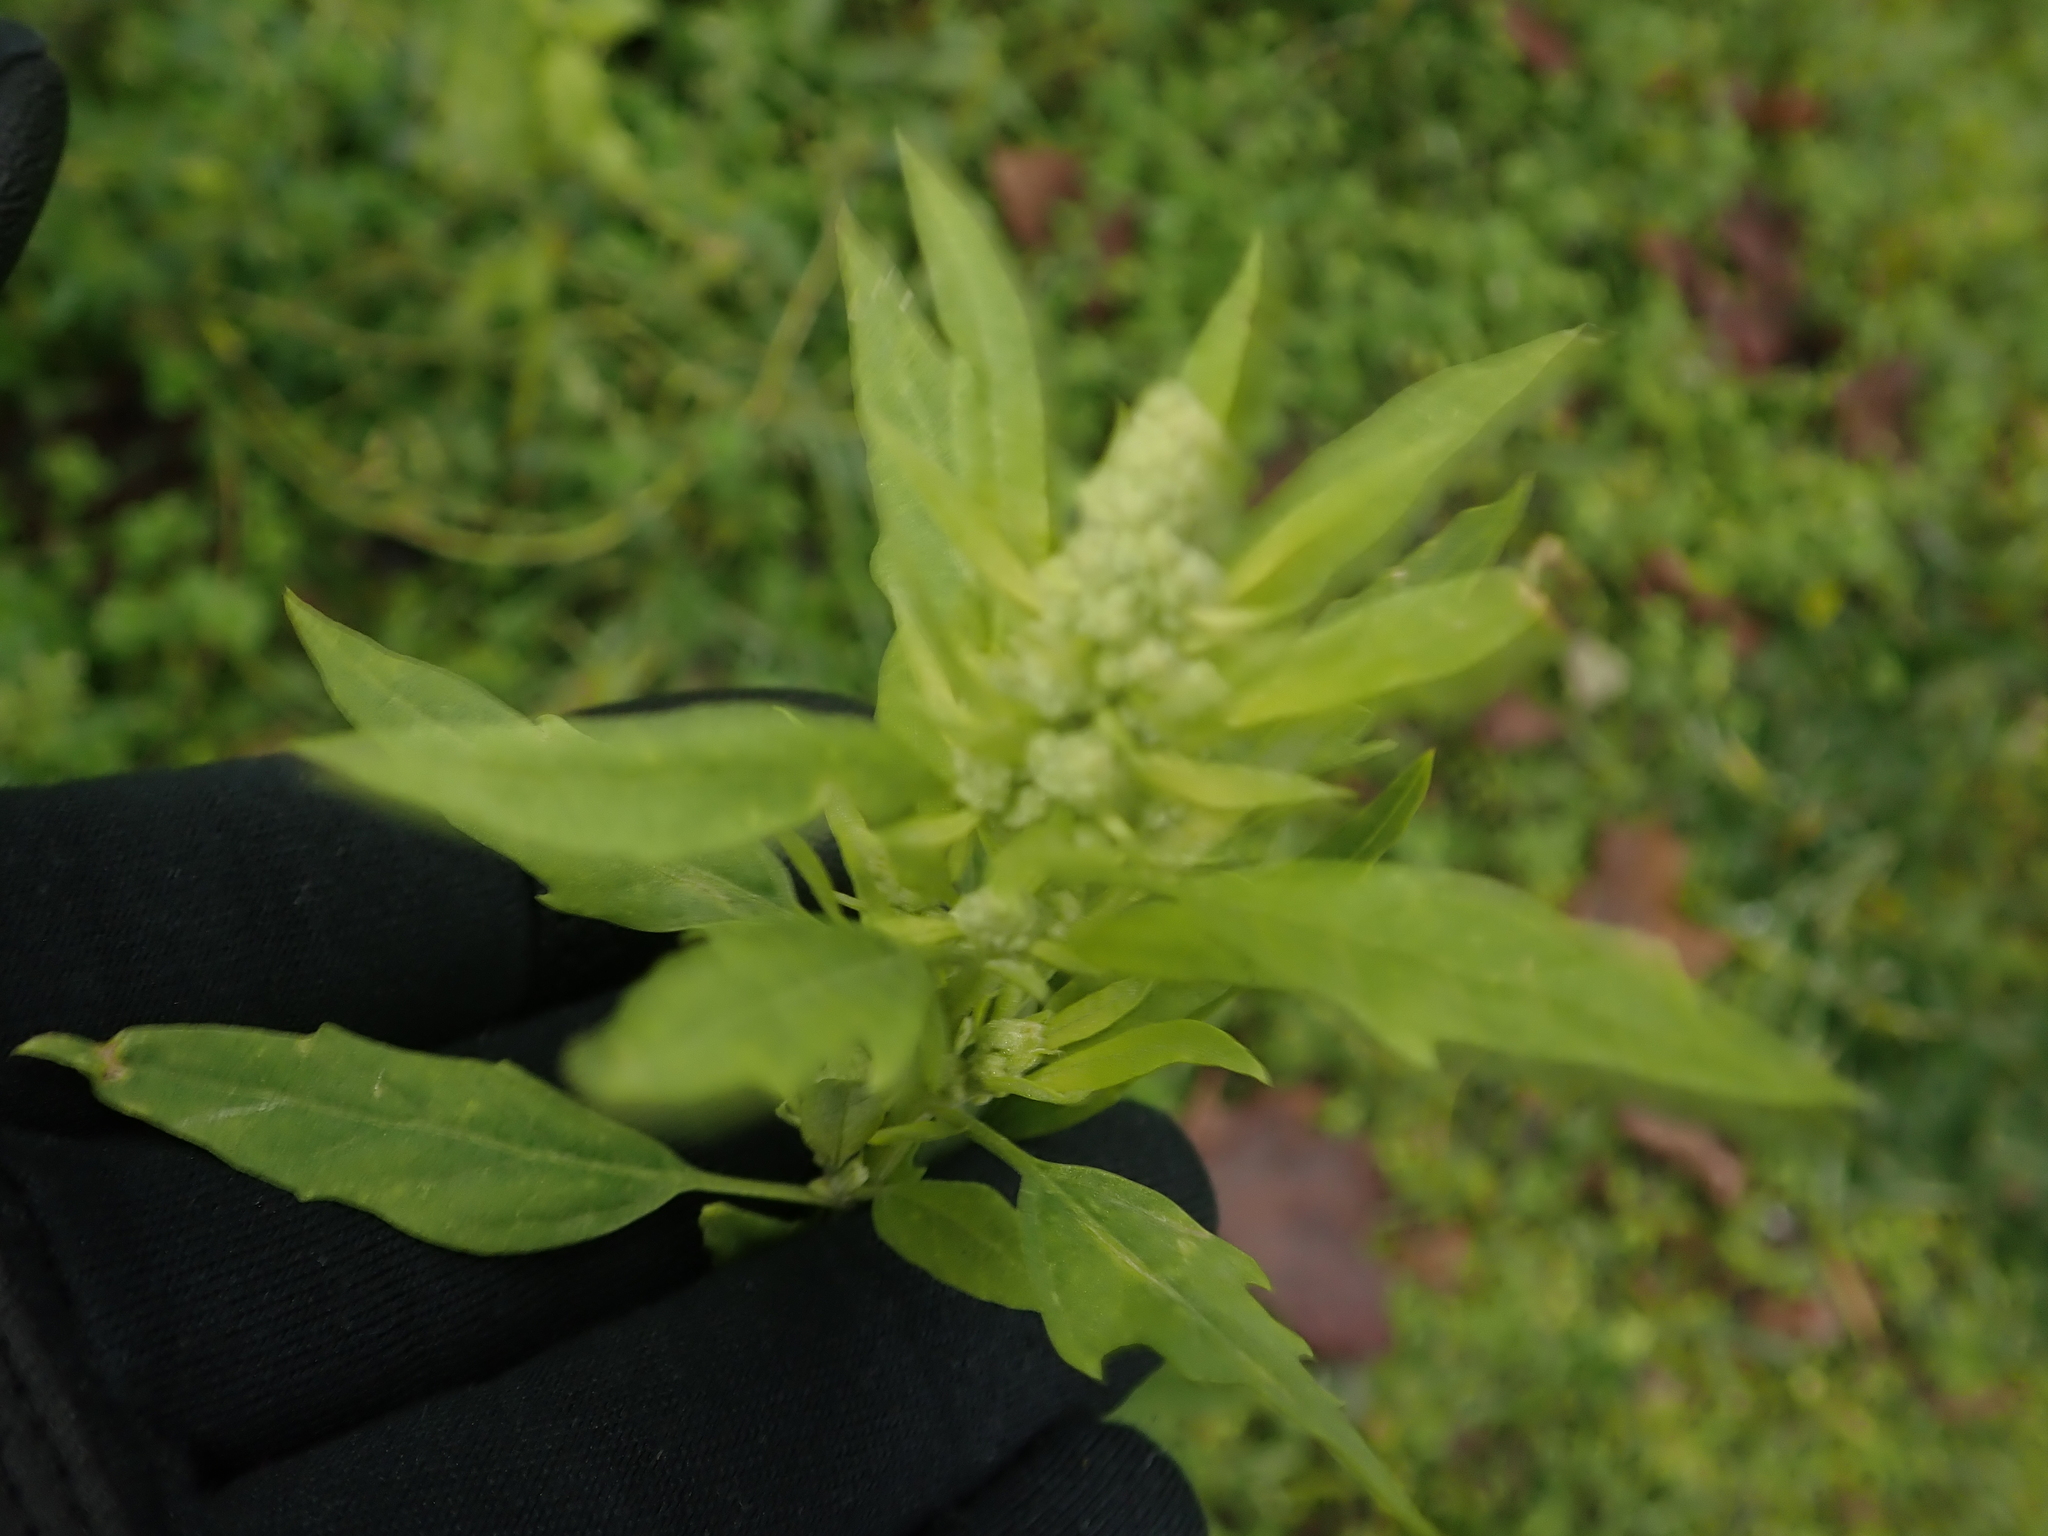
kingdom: Plantae
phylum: Tracheophyta
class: Magnoliopsida
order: Caryophyllales
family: Amaranthaceae
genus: Chenopodium
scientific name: Chenopodium album
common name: Fat-hen
